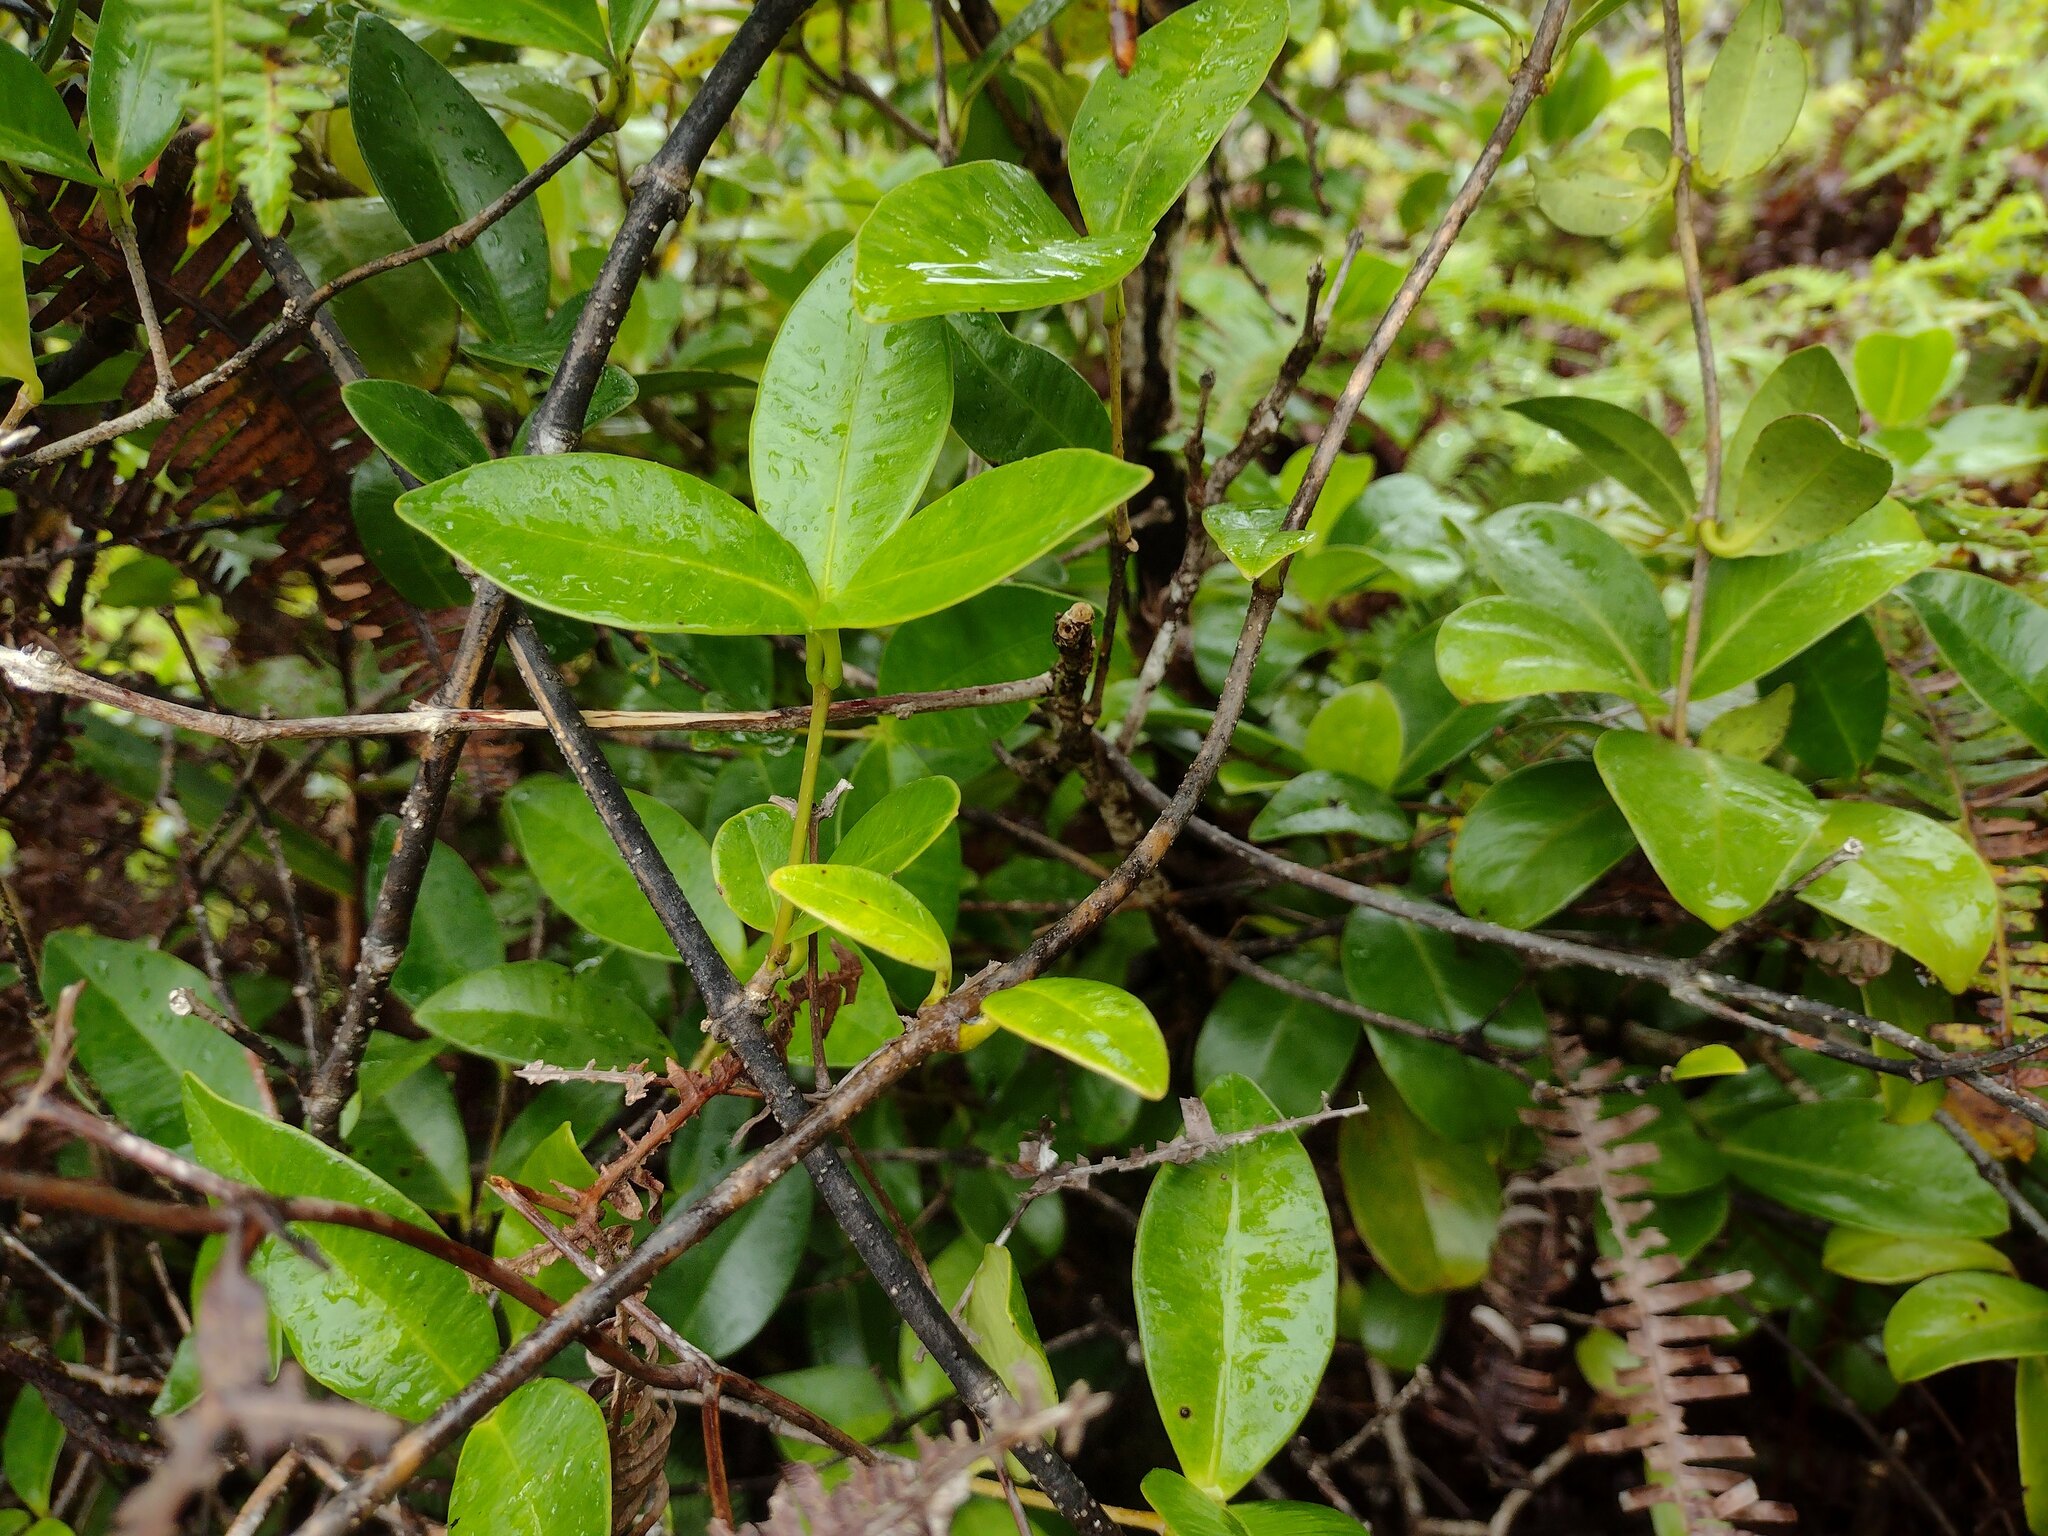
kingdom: Plantae
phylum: Tracheophyta
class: Magnoliopsida
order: Gentianales
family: Apocynaceae
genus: Alyxia
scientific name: Alyxia stellata
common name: Maile
